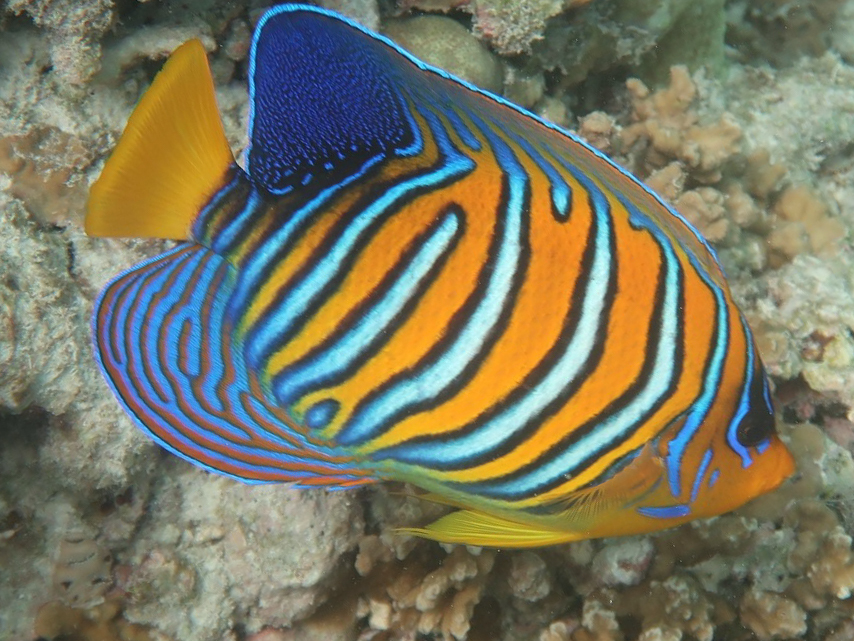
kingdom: Animalia
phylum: Chordata
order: Perciformes
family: Pomacanthidae
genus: Pygoplites
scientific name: Pygoplites diacanthus
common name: Regal angelfish
